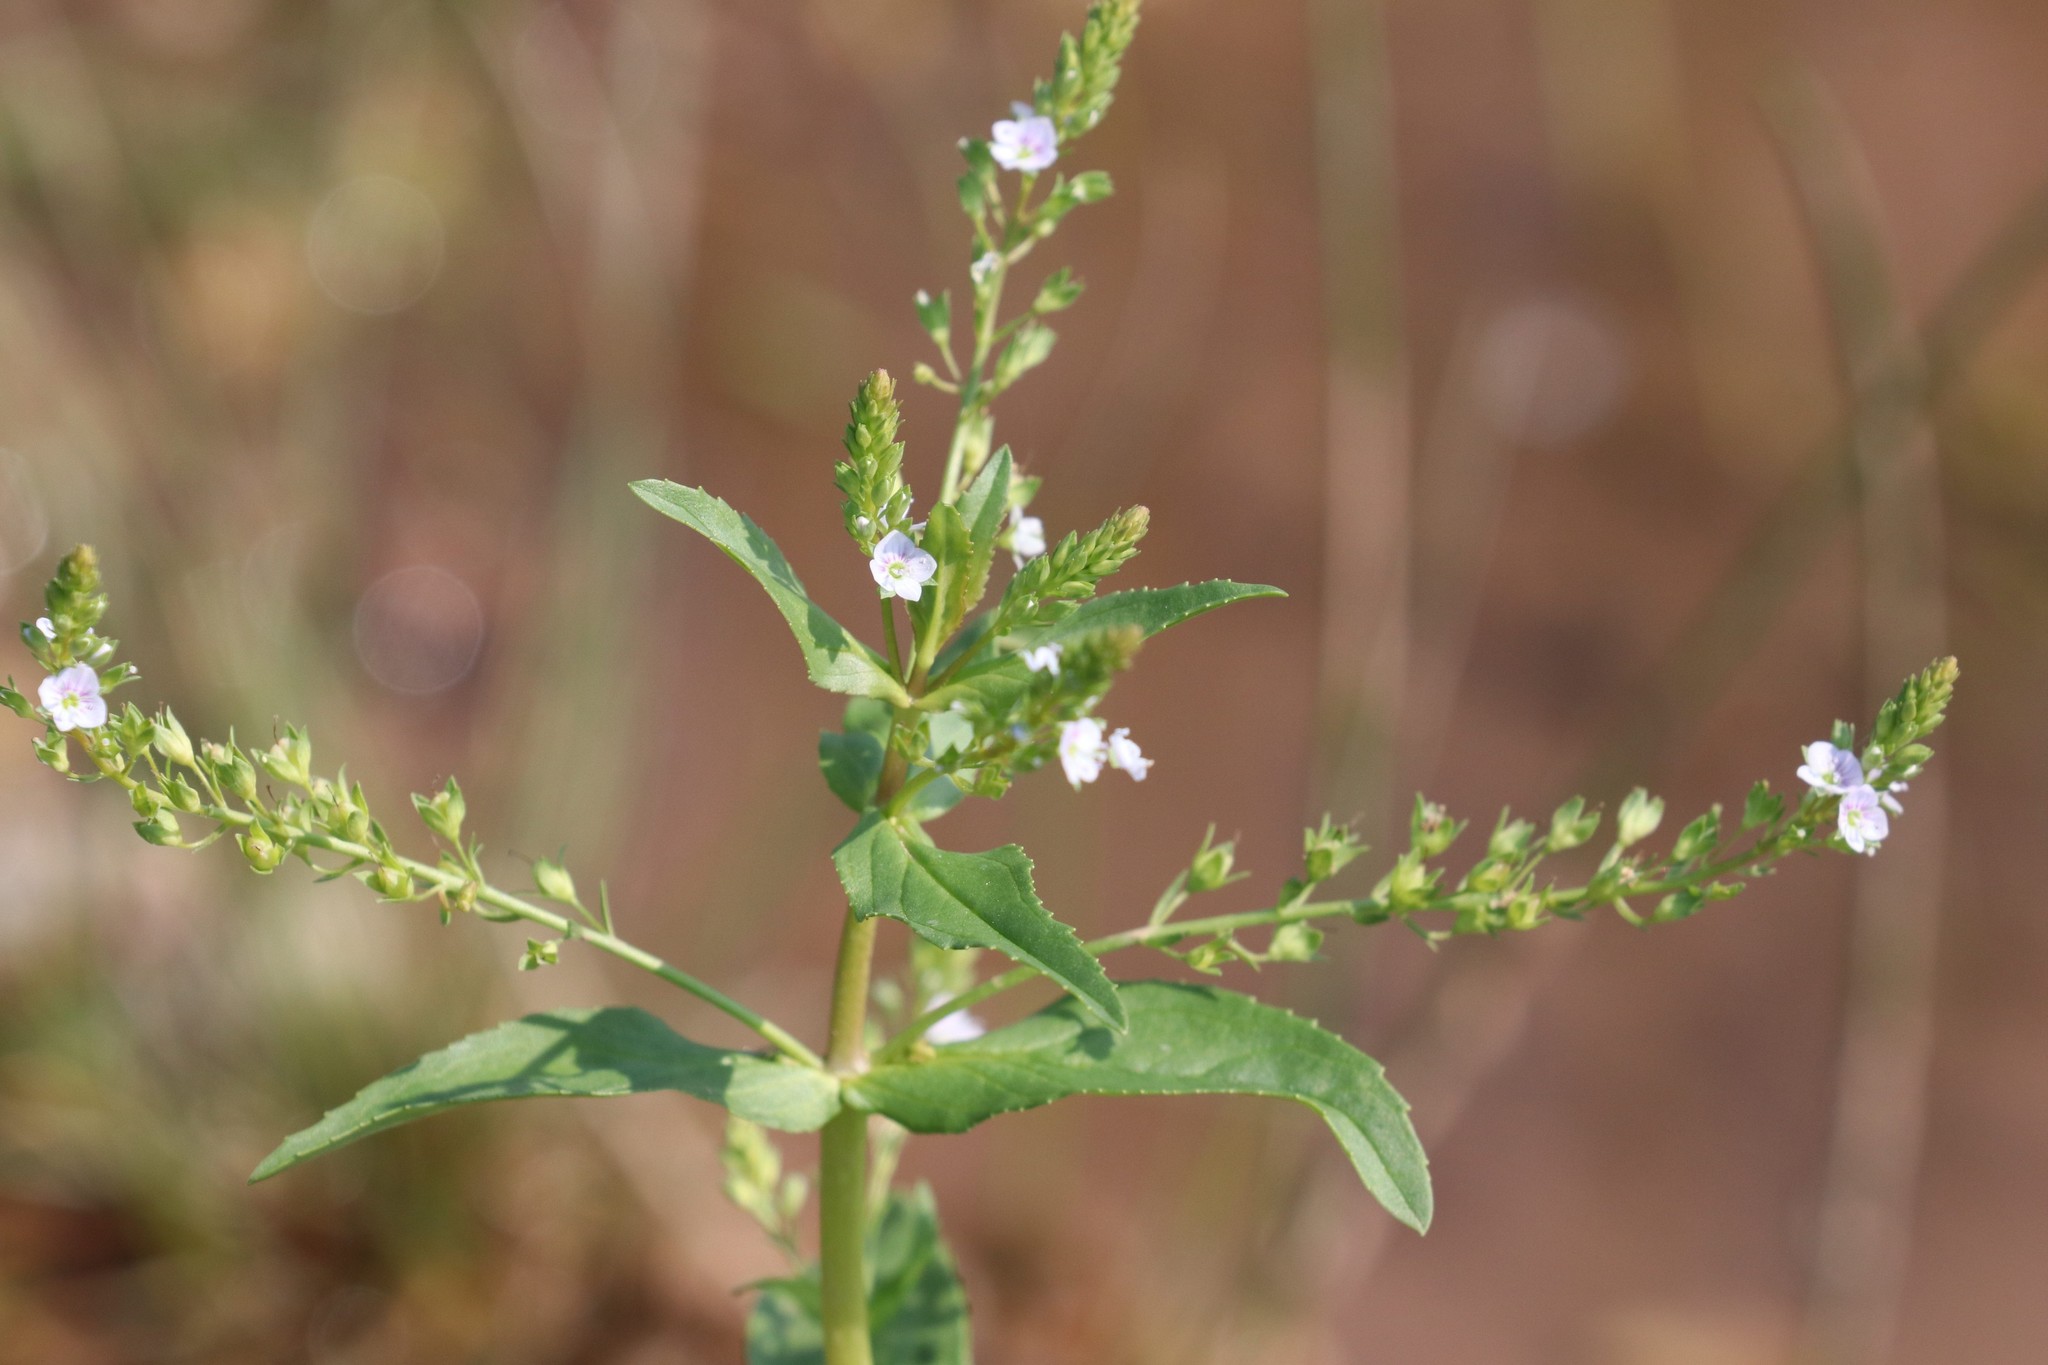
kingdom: Plantae
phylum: Tracheophyta
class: Magnoliopsida
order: Lamiales
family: Plantaginaceae
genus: Veronica
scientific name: Veronica anagallis-aquatica
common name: Water speedwell
